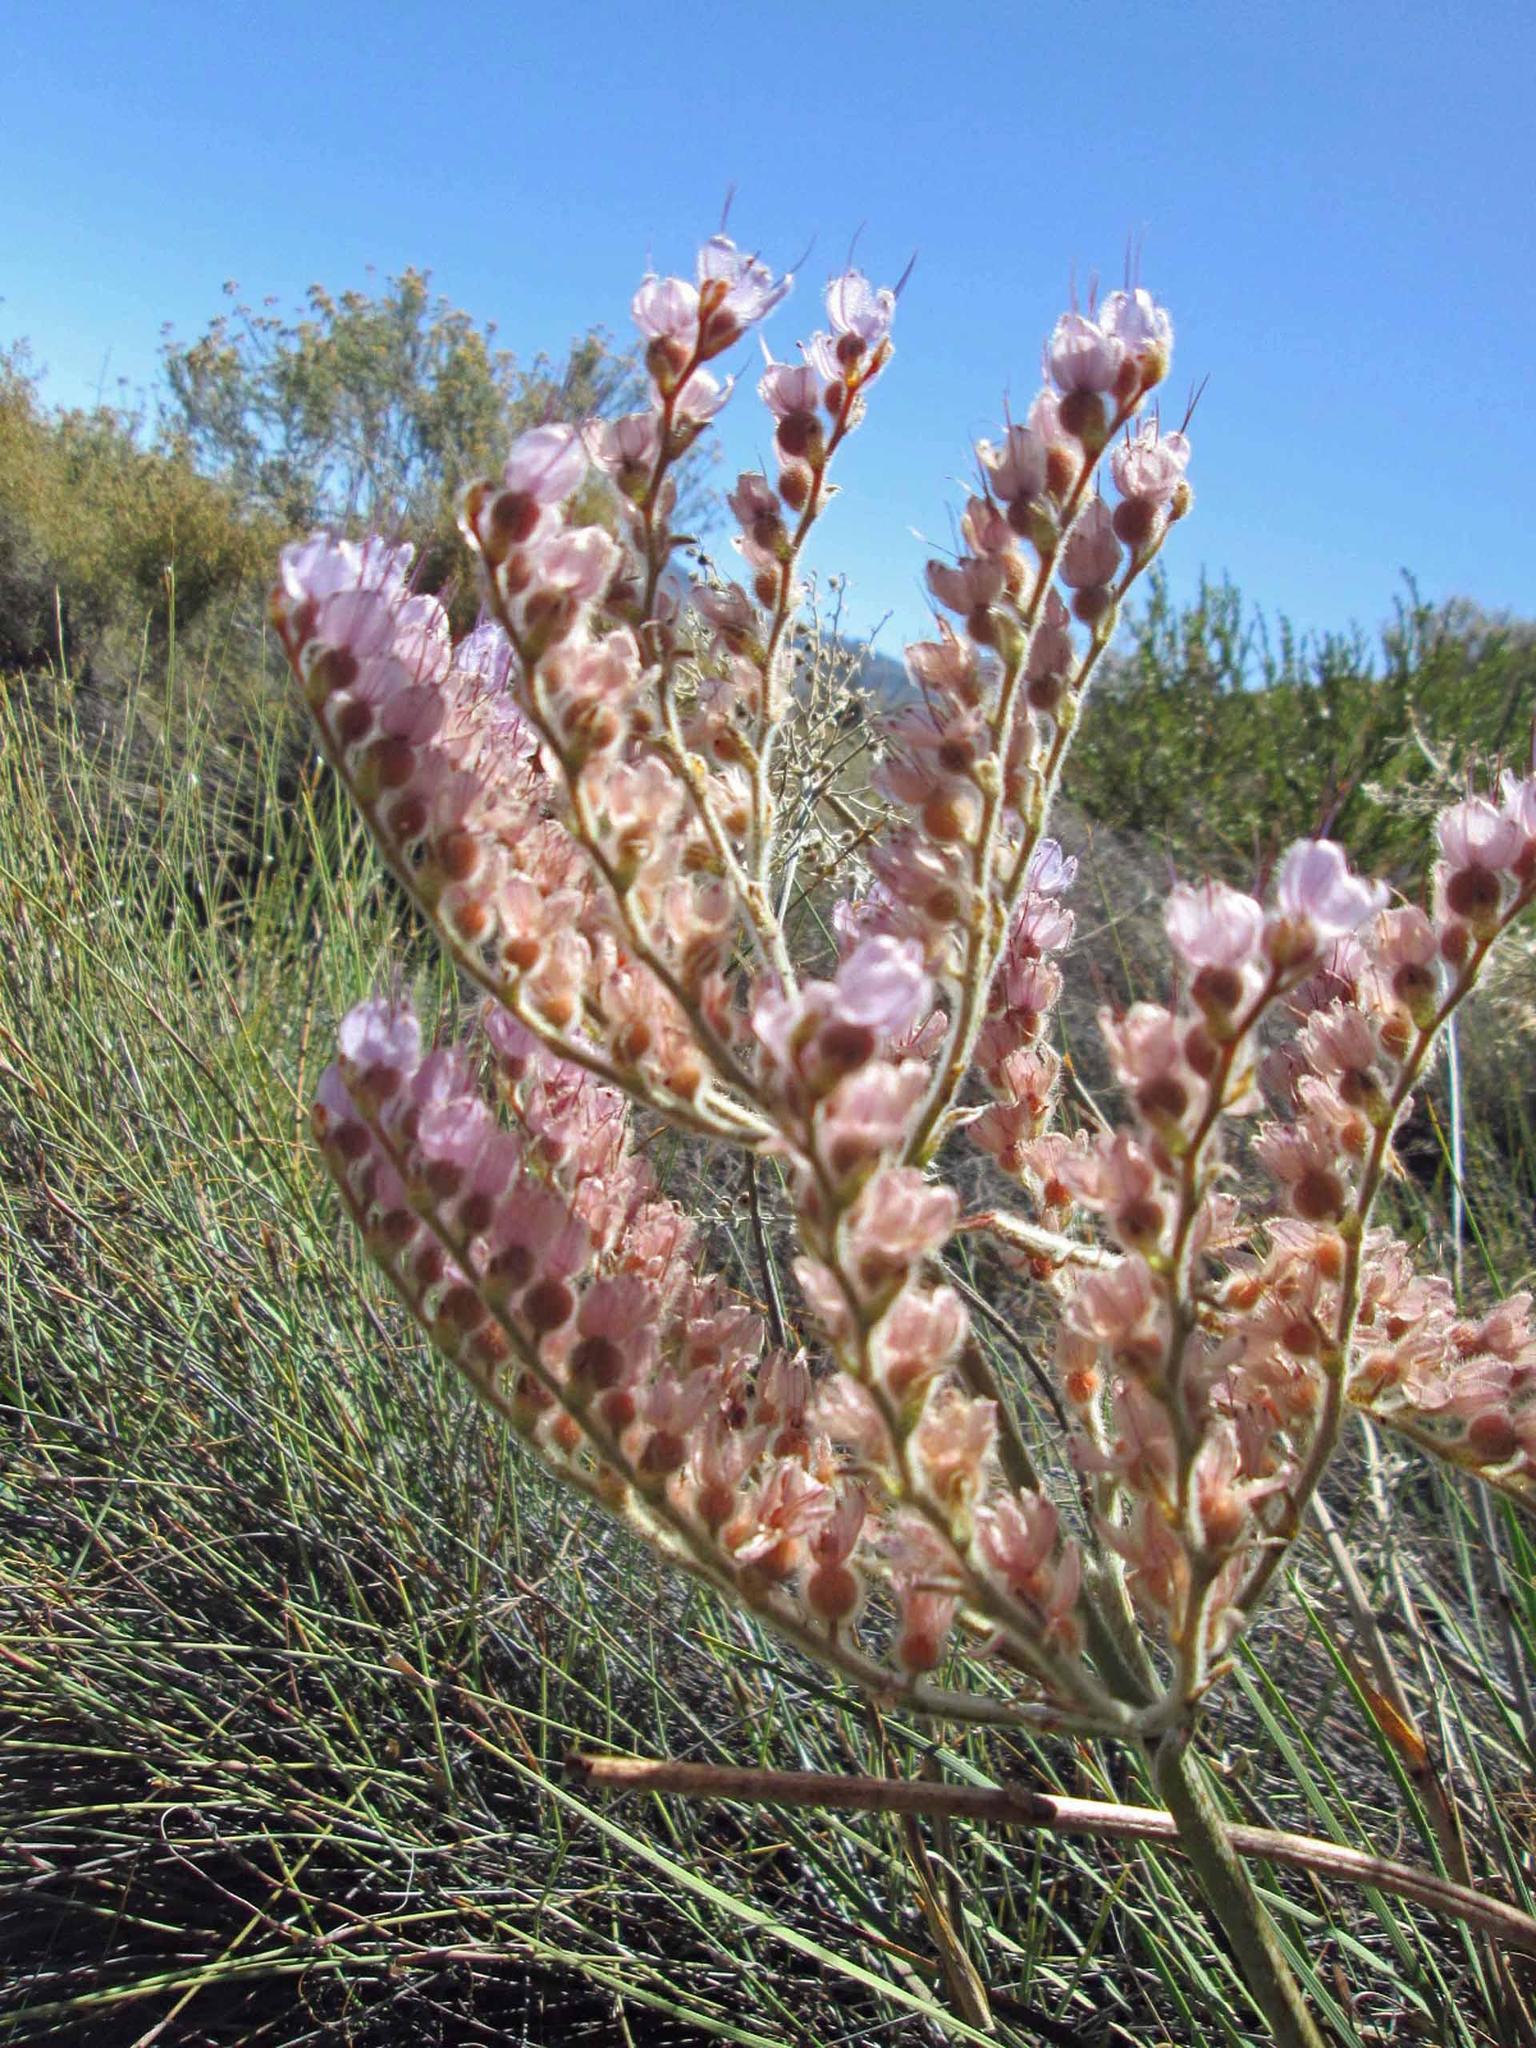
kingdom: Plantae
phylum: Tracheophyta
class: Liliopsida
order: Commelinales
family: Haemodoraceae
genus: Dilatris
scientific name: Dilatris ixioides
